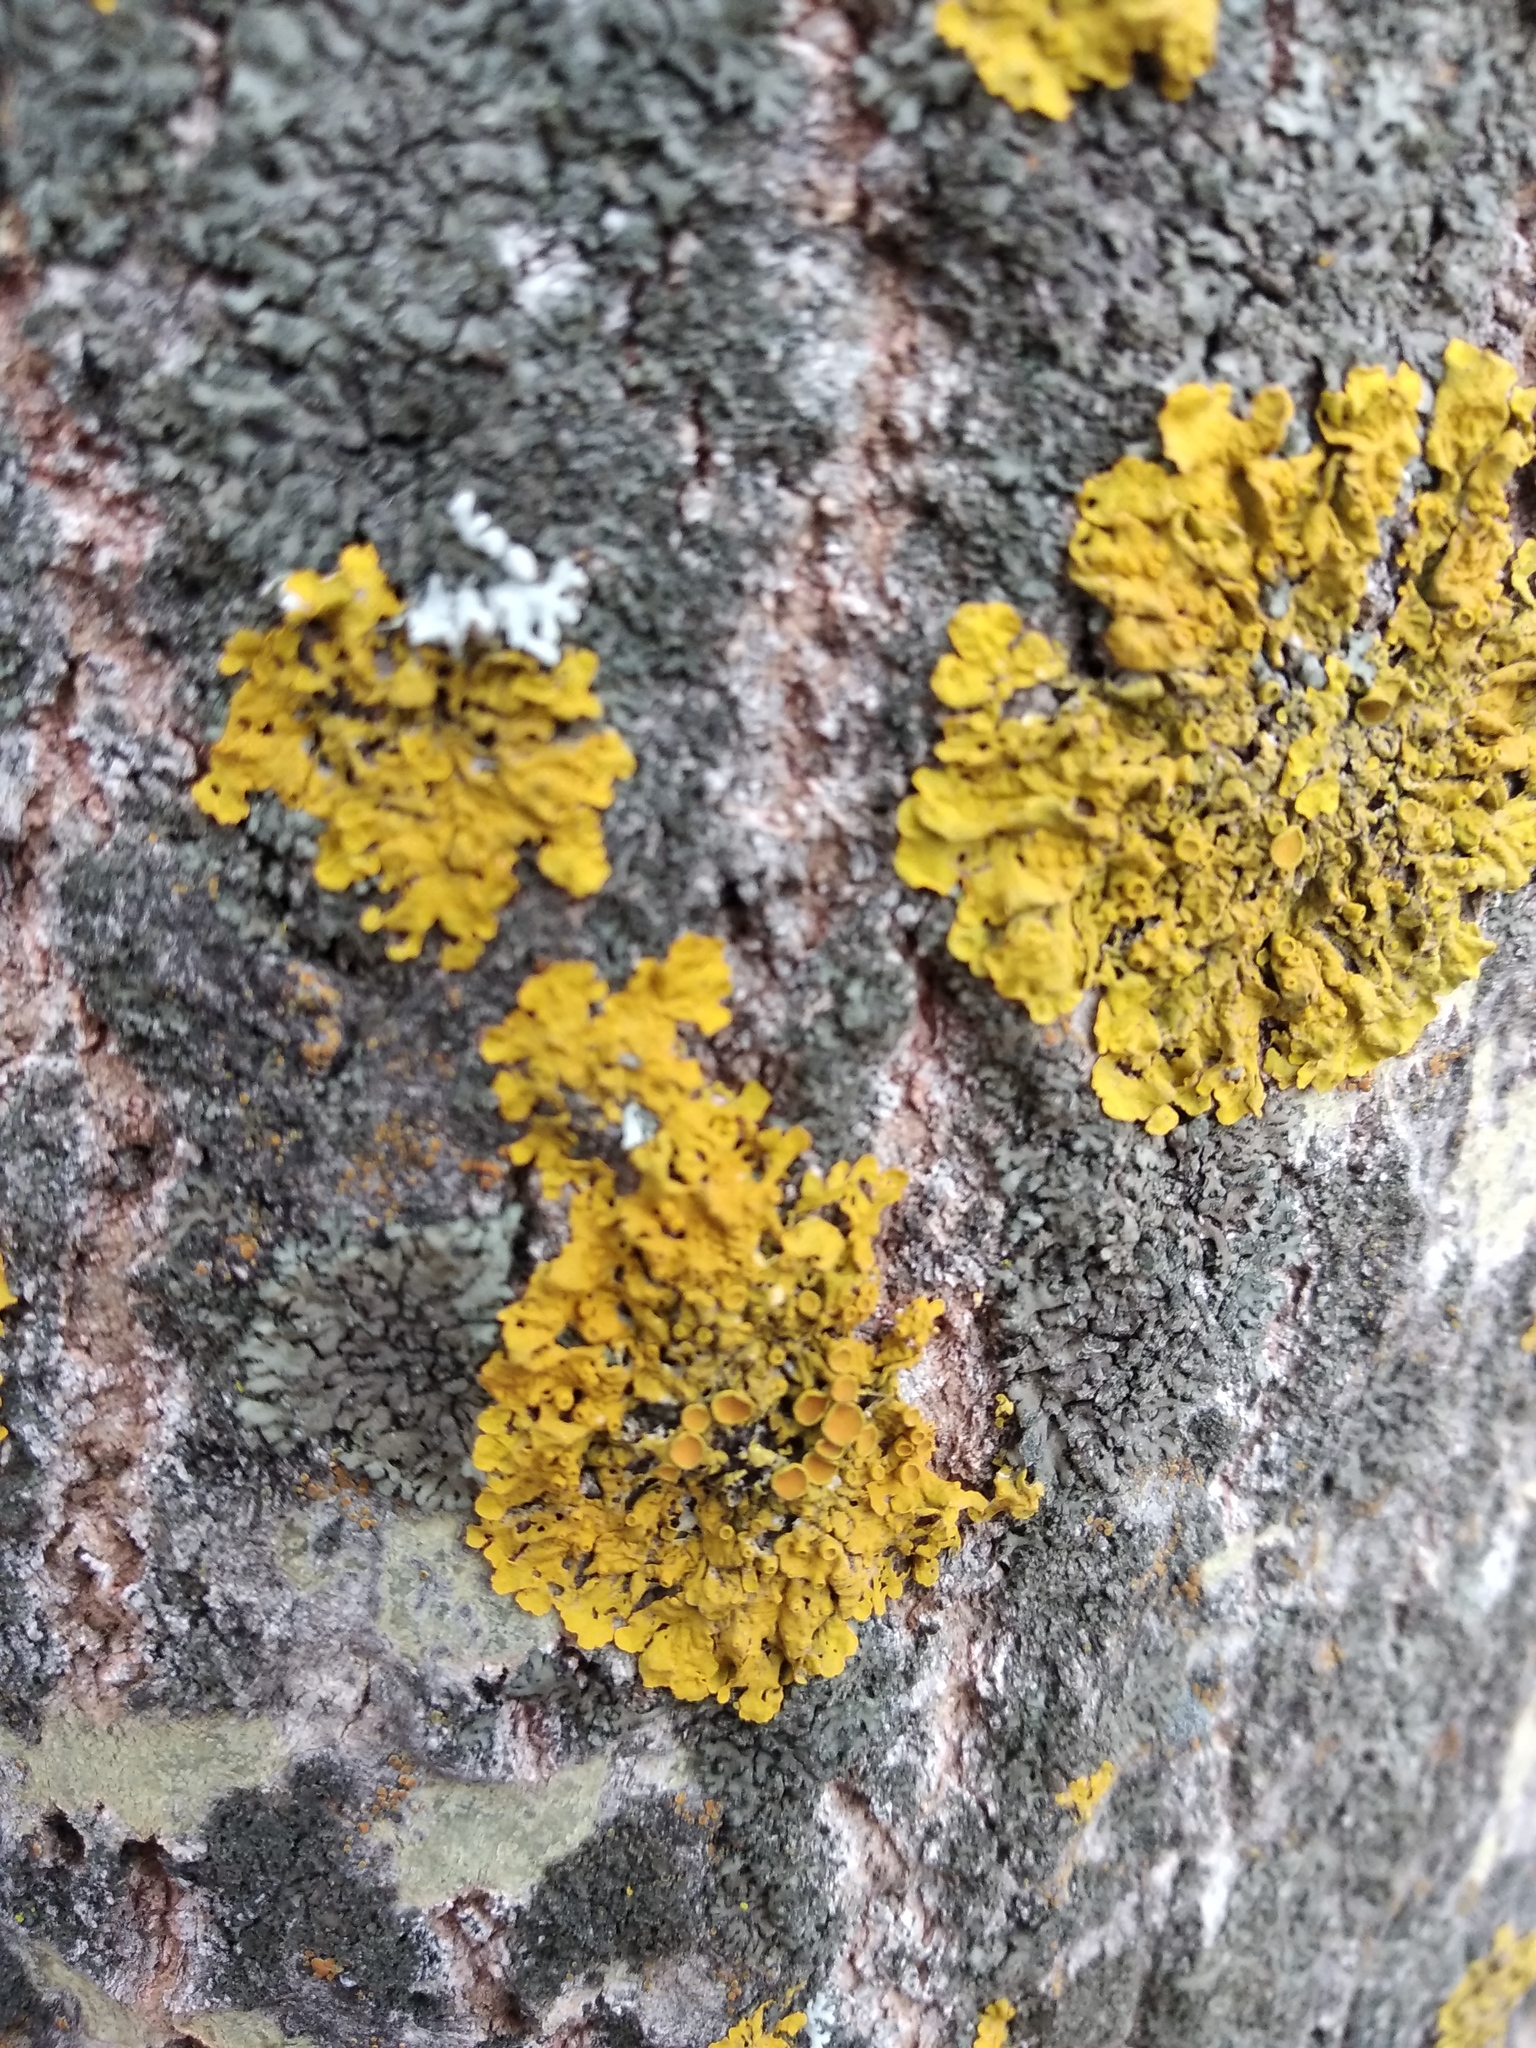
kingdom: Fungi
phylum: Ascomycota
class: Lecanoromycetes
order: Teloschistales
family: Teloschistaceae
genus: Xanthoria
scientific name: Xanthoria parietina
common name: Common orange lichen
